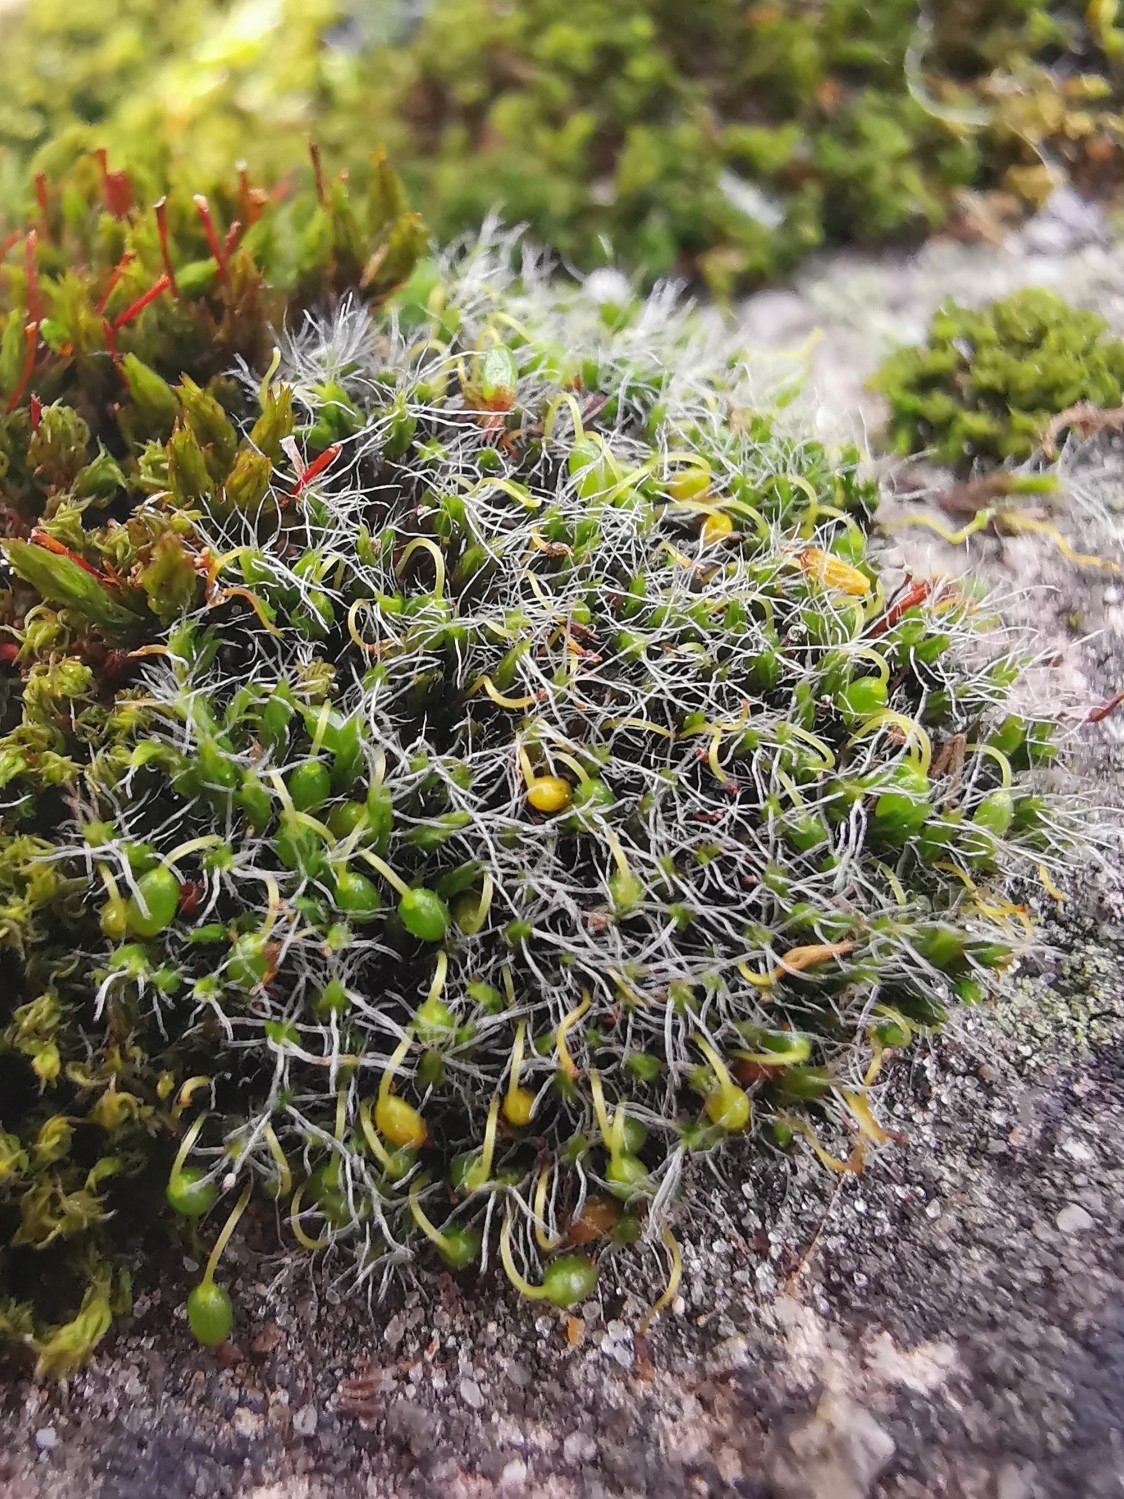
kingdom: Plantae
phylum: Bryophyta
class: Bryopsida
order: Grimmiales
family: Grimmiaceae
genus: Grimmia
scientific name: Grimmia pulvinata
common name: Grey-cushioned grimmia
